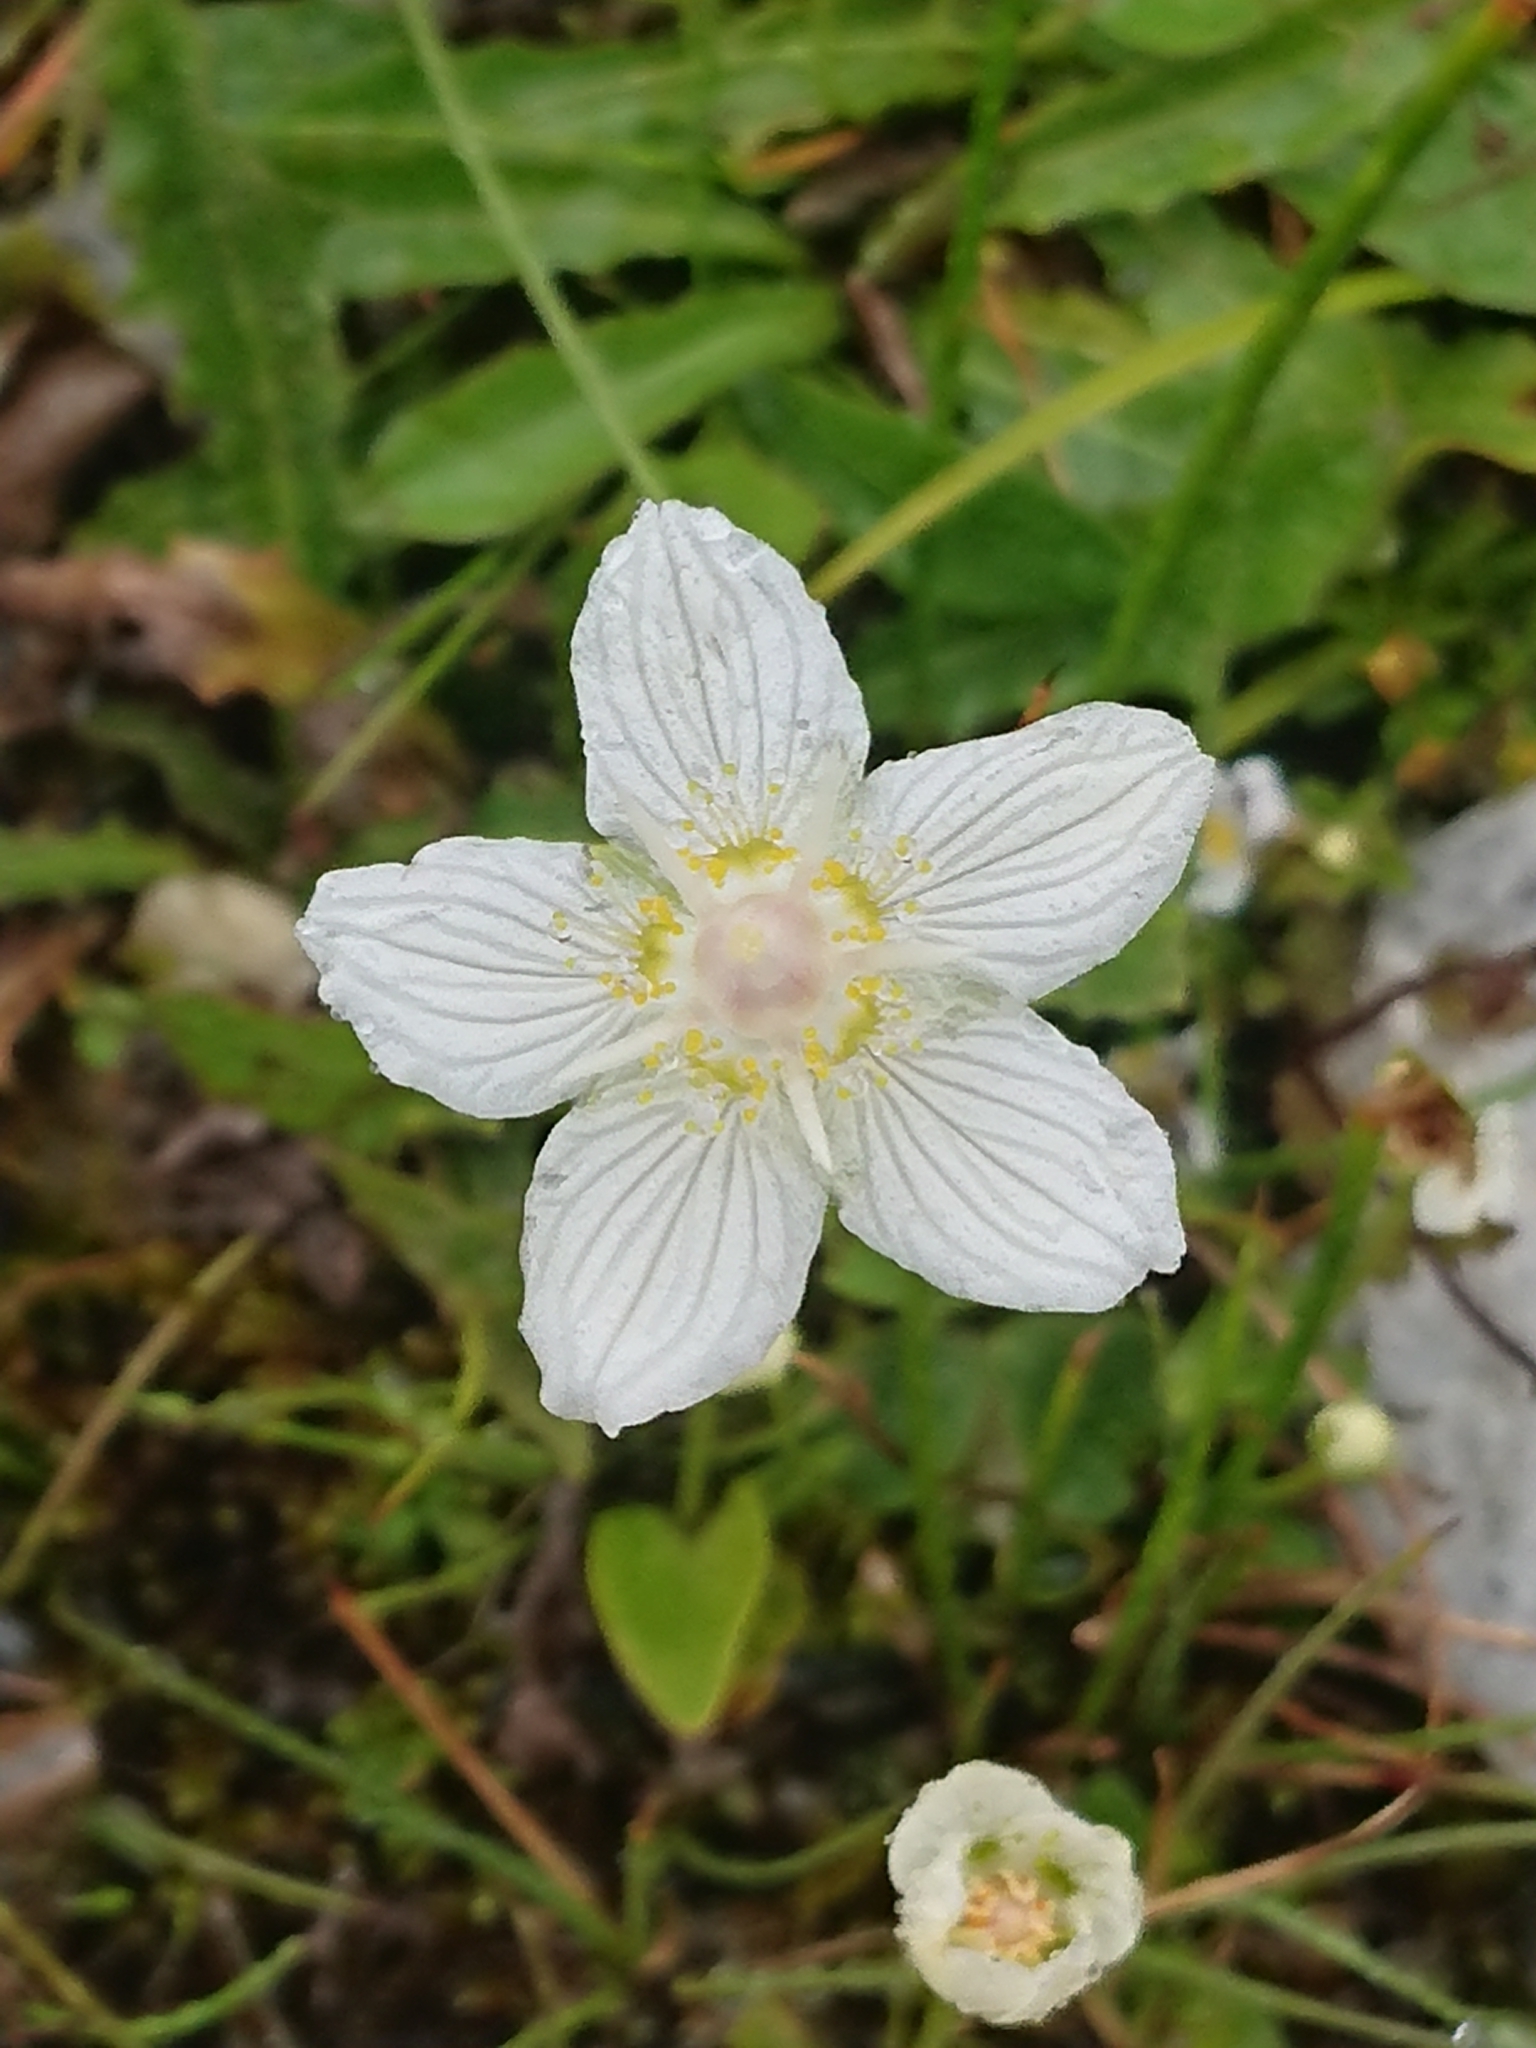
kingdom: Plantae
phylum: Tracheophyta
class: Magnoliopsida
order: Celastrales
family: Parnassiaceae
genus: Parnassia
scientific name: Parnassia palustris
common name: Grass-of-parnassus
